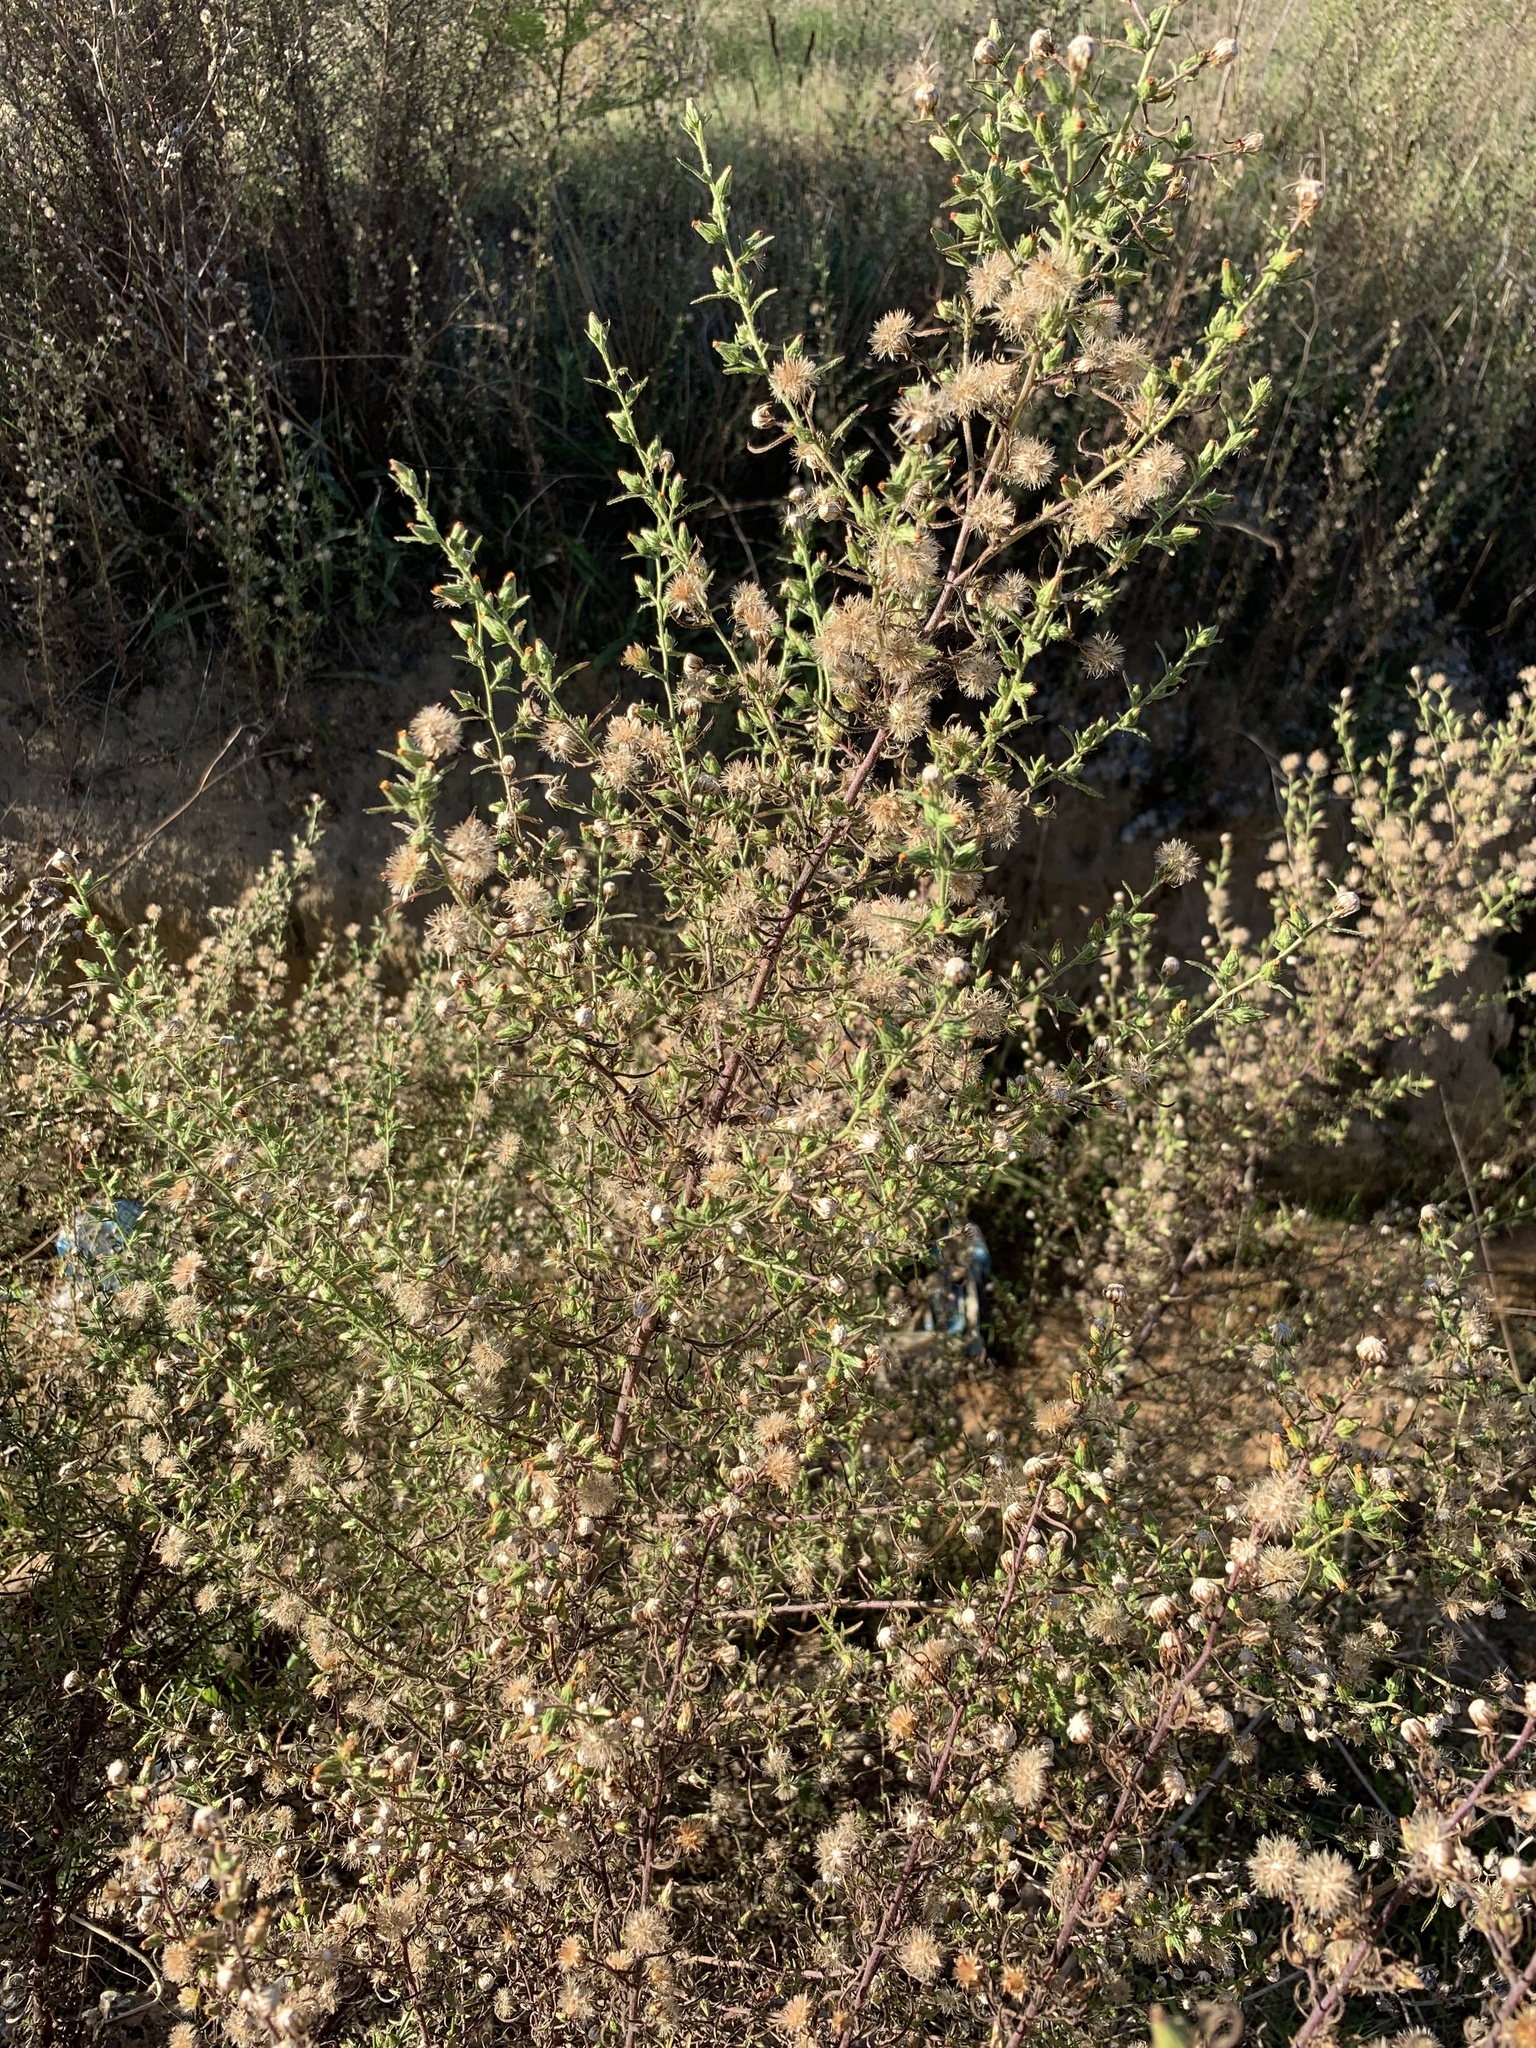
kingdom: Plantae
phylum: Tracheophyta
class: Magnoliopsida
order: Asterales
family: Asteraceae
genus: Dittrichia
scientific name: Dittrichia graveolens
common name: Stinking fleabane
